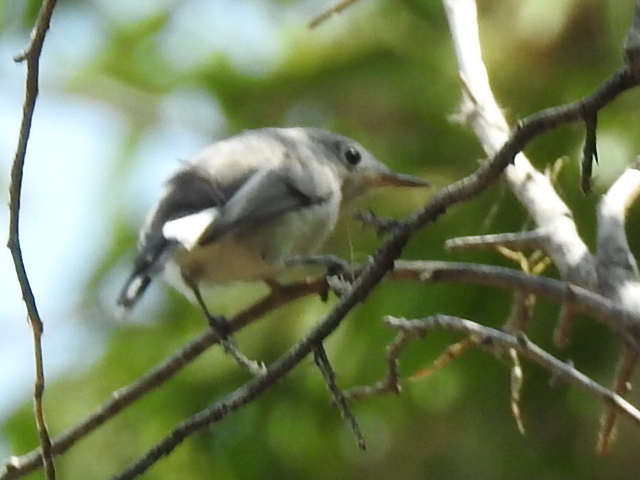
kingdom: Animalia
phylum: Chordata
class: Aves
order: Passeriformes
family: Polioptilidae
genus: Polioptila
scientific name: Polioptila caerulea
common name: Blue-gray gnatcatcher
